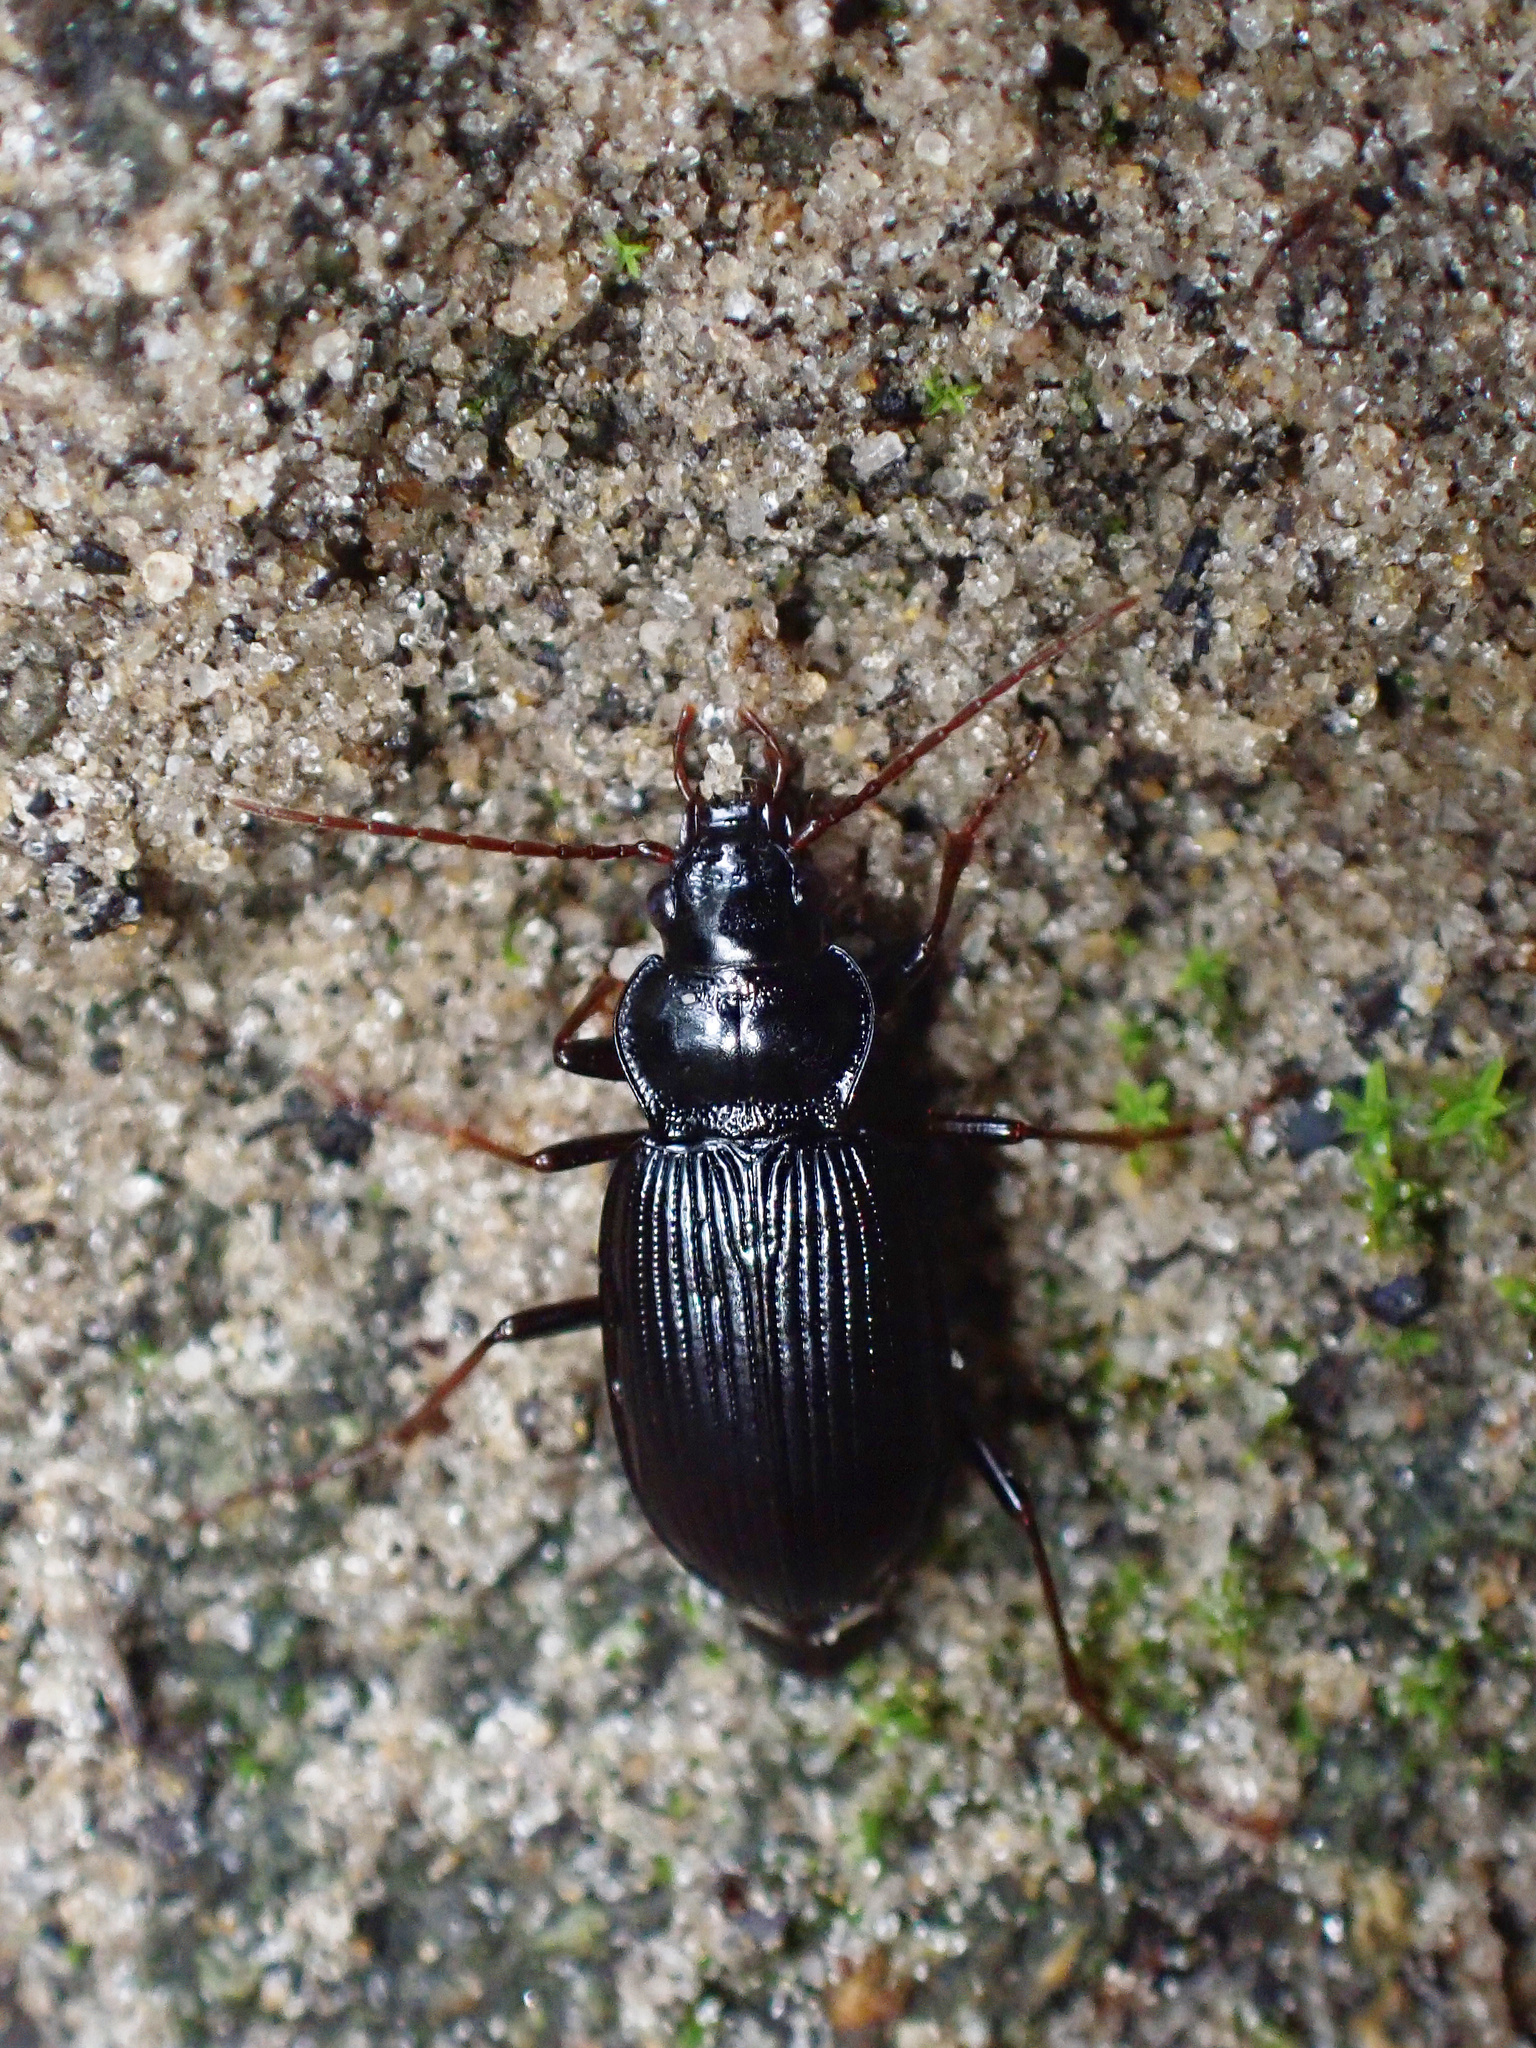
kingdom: Animalia
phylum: Arthropoda
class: Insecta
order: Coleoptera
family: Carabidae
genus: Nebria
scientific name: Nebria brevicollis
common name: Short-necked gazelle beetle
